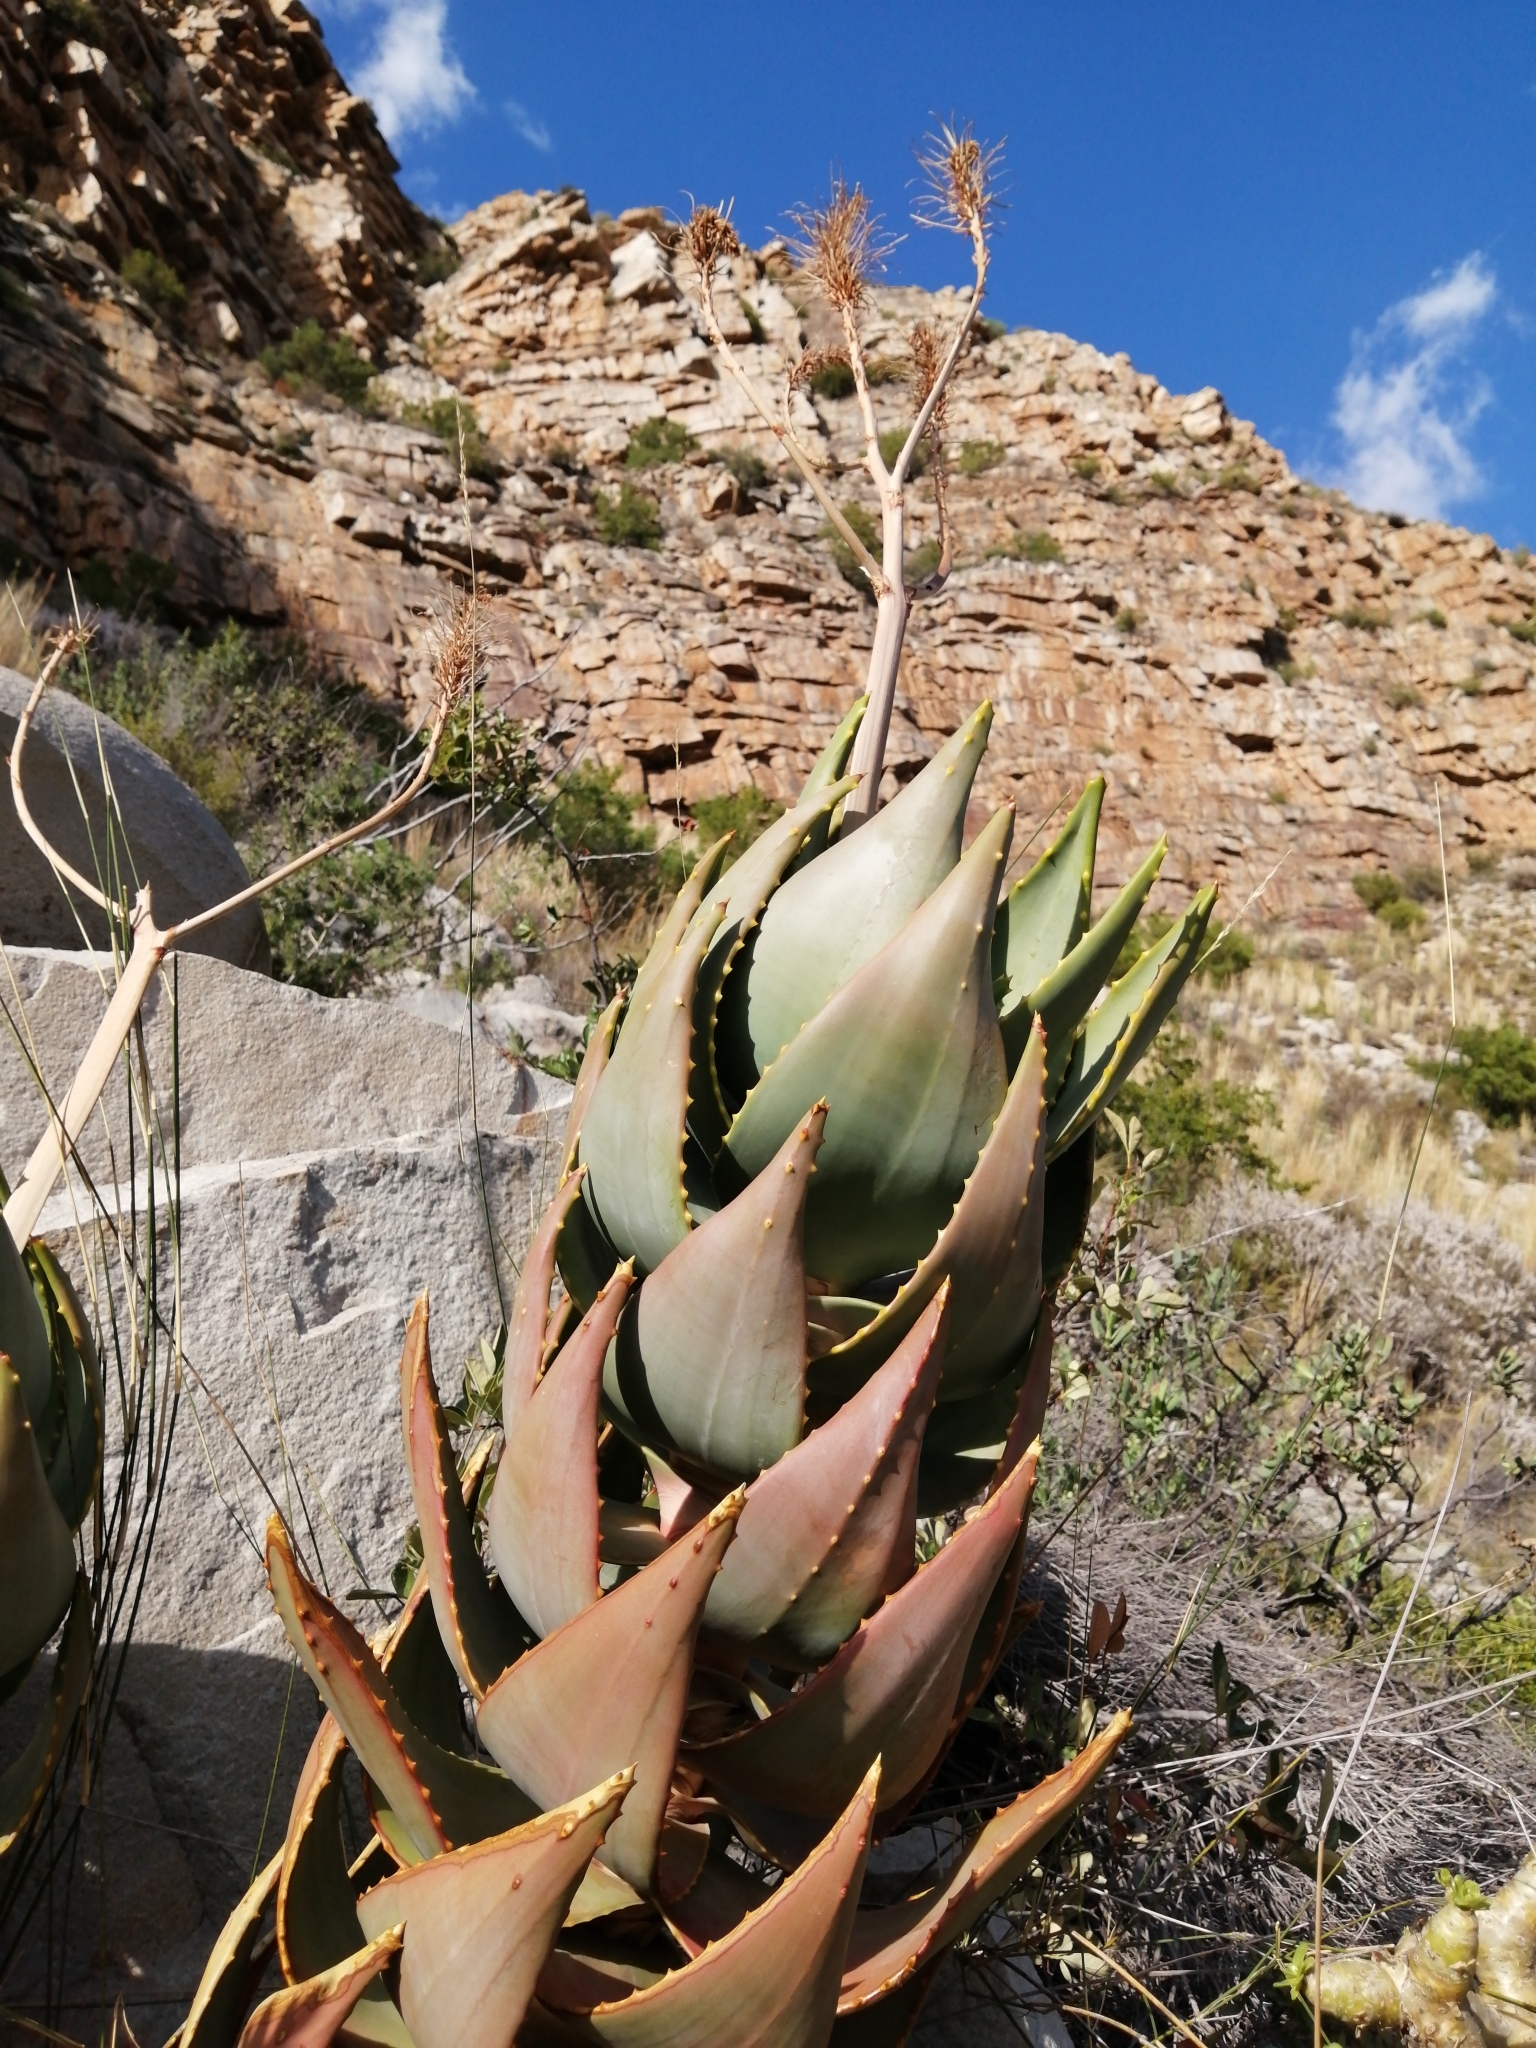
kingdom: Plantae
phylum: Tracheophyta
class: Liliopsida
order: Asparagales
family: Asphodelaceae
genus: Aloe
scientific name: Aloe perfoliata
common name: Mitra aloe
